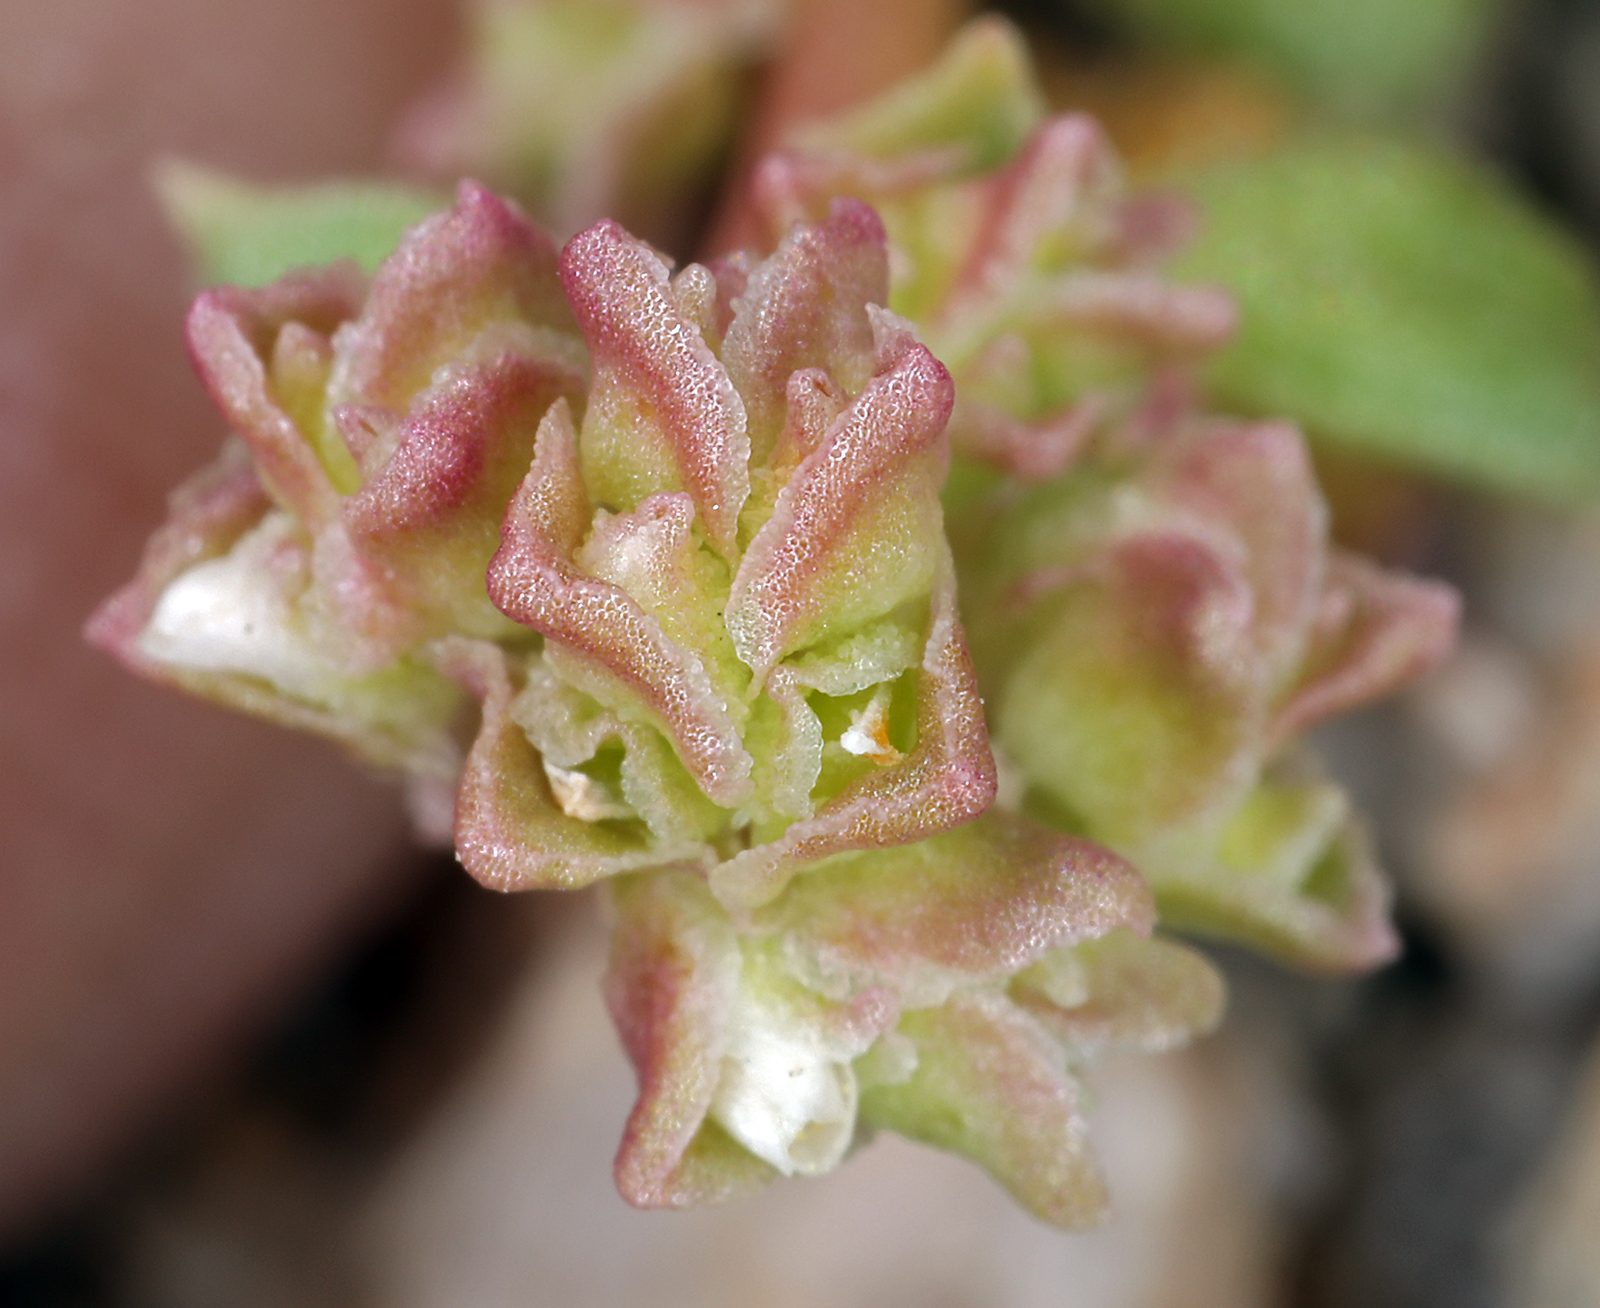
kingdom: Plantae
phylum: Tracheophyta
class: Magnoliopsida
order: Caryophyllales
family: Montiaceae
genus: Calyptridium
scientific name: Calyptridium monandrum
